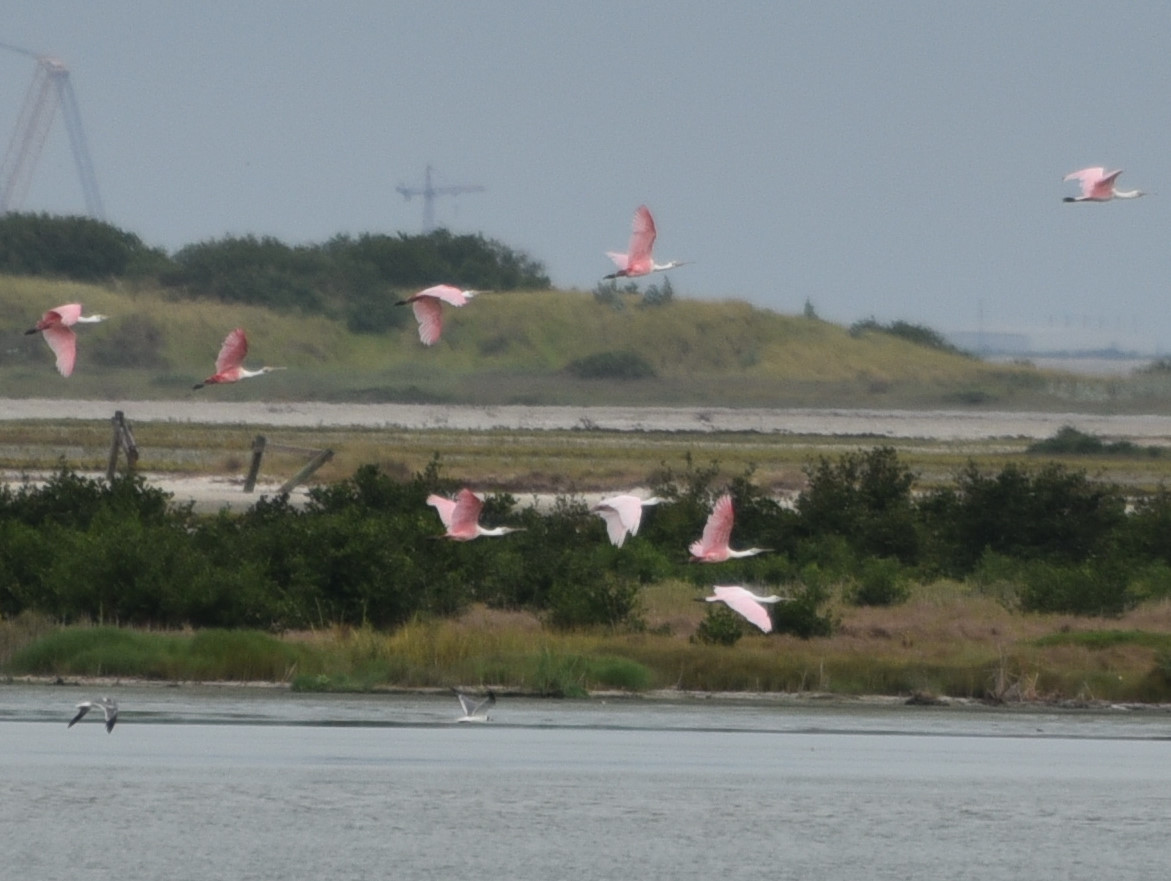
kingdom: Animalia
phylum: Chordata
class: Aves
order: Pelecaniformes
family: Threskiornithidae
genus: Platalea
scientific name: Platalea ajaja
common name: Roseate spoonbill
